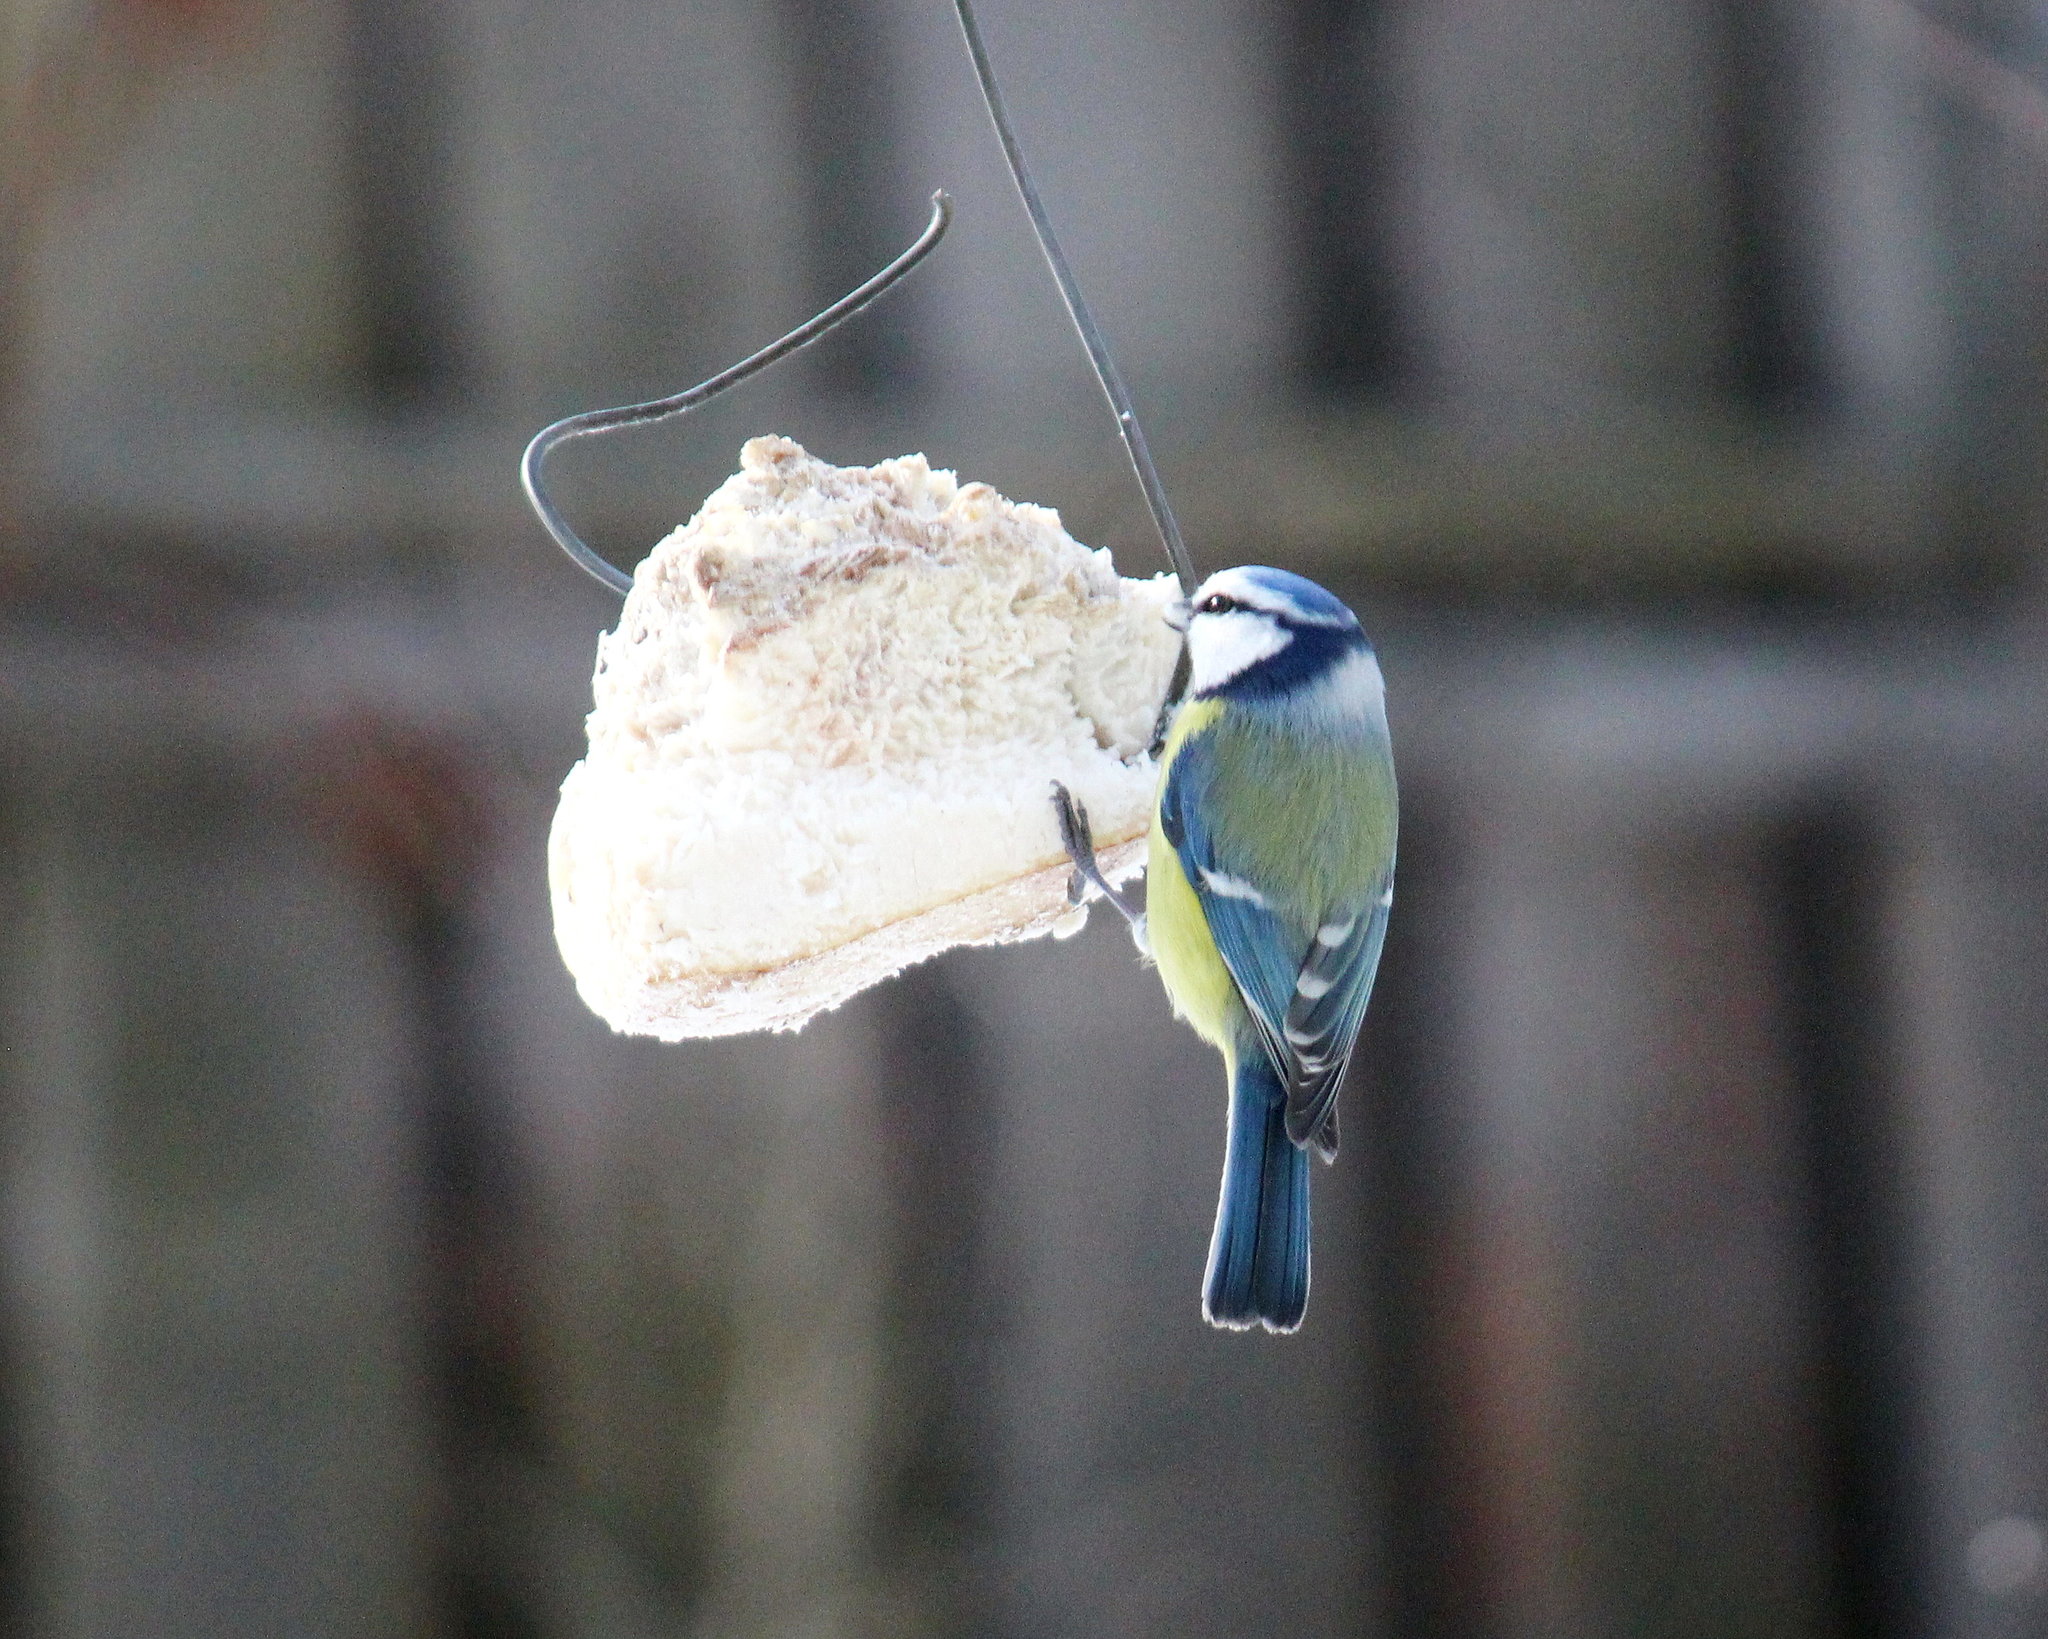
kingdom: Animalia
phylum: Chordata
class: Aves
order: Passeriformes
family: Paridae
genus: Cyanistes
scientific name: Cyanistes caeruleus
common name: Eurasian blue tit
